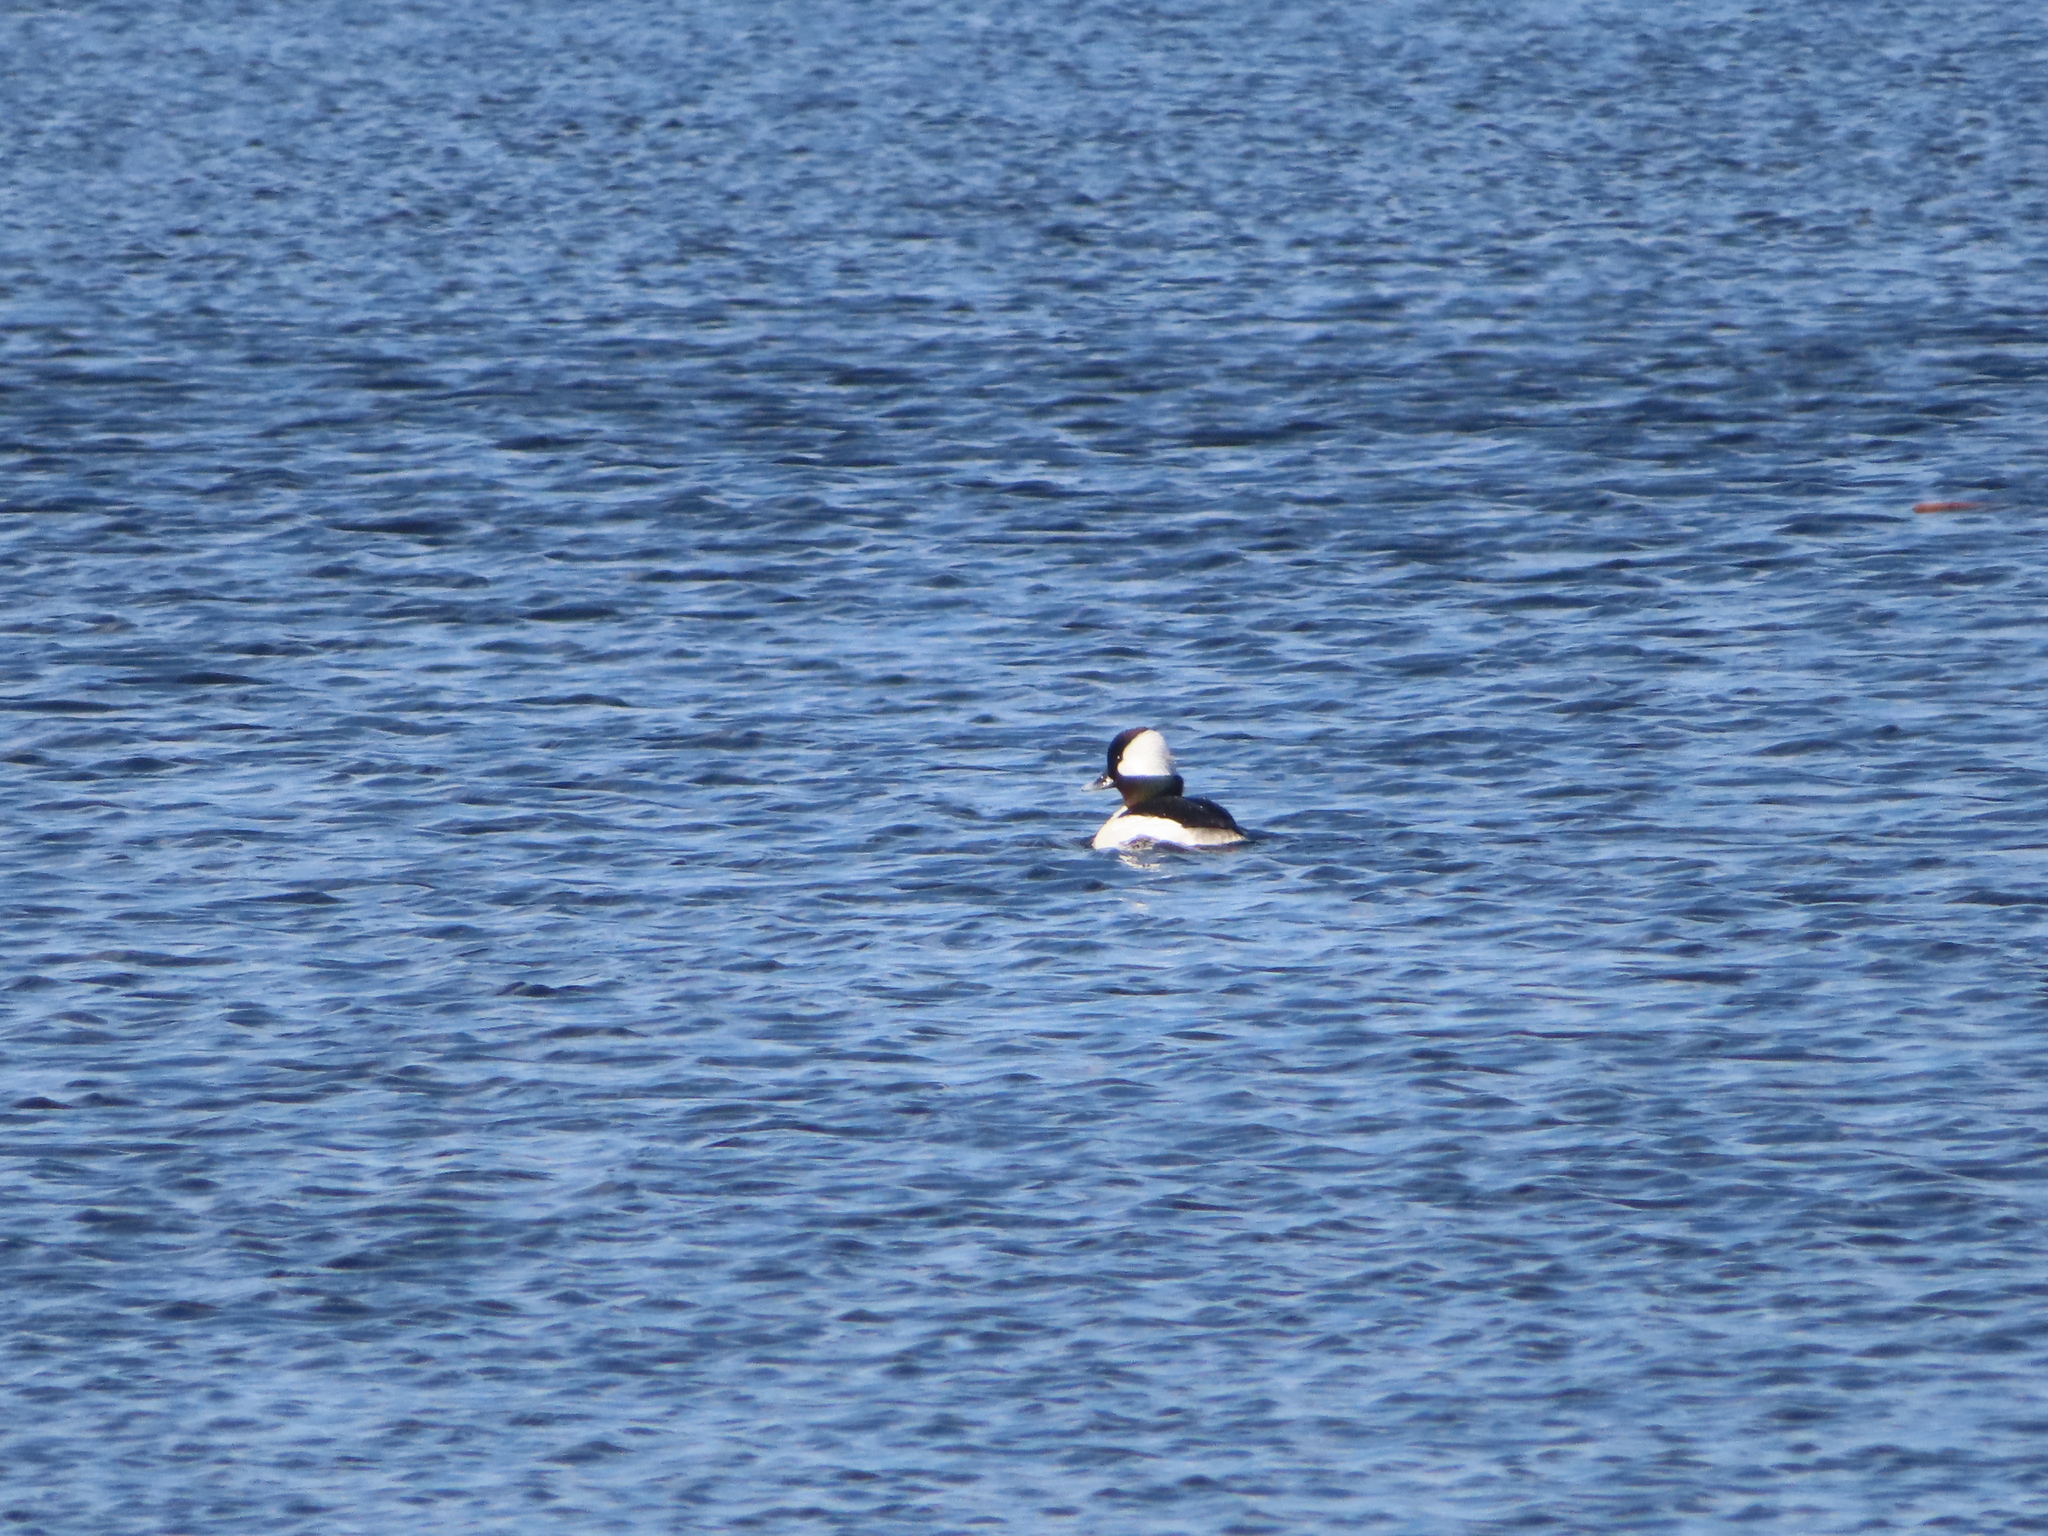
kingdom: Animalia
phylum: Chordata
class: Aves
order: Anseriformes
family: Anatidae
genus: Bucephala
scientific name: Bucephala albeola
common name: Bufflehead
